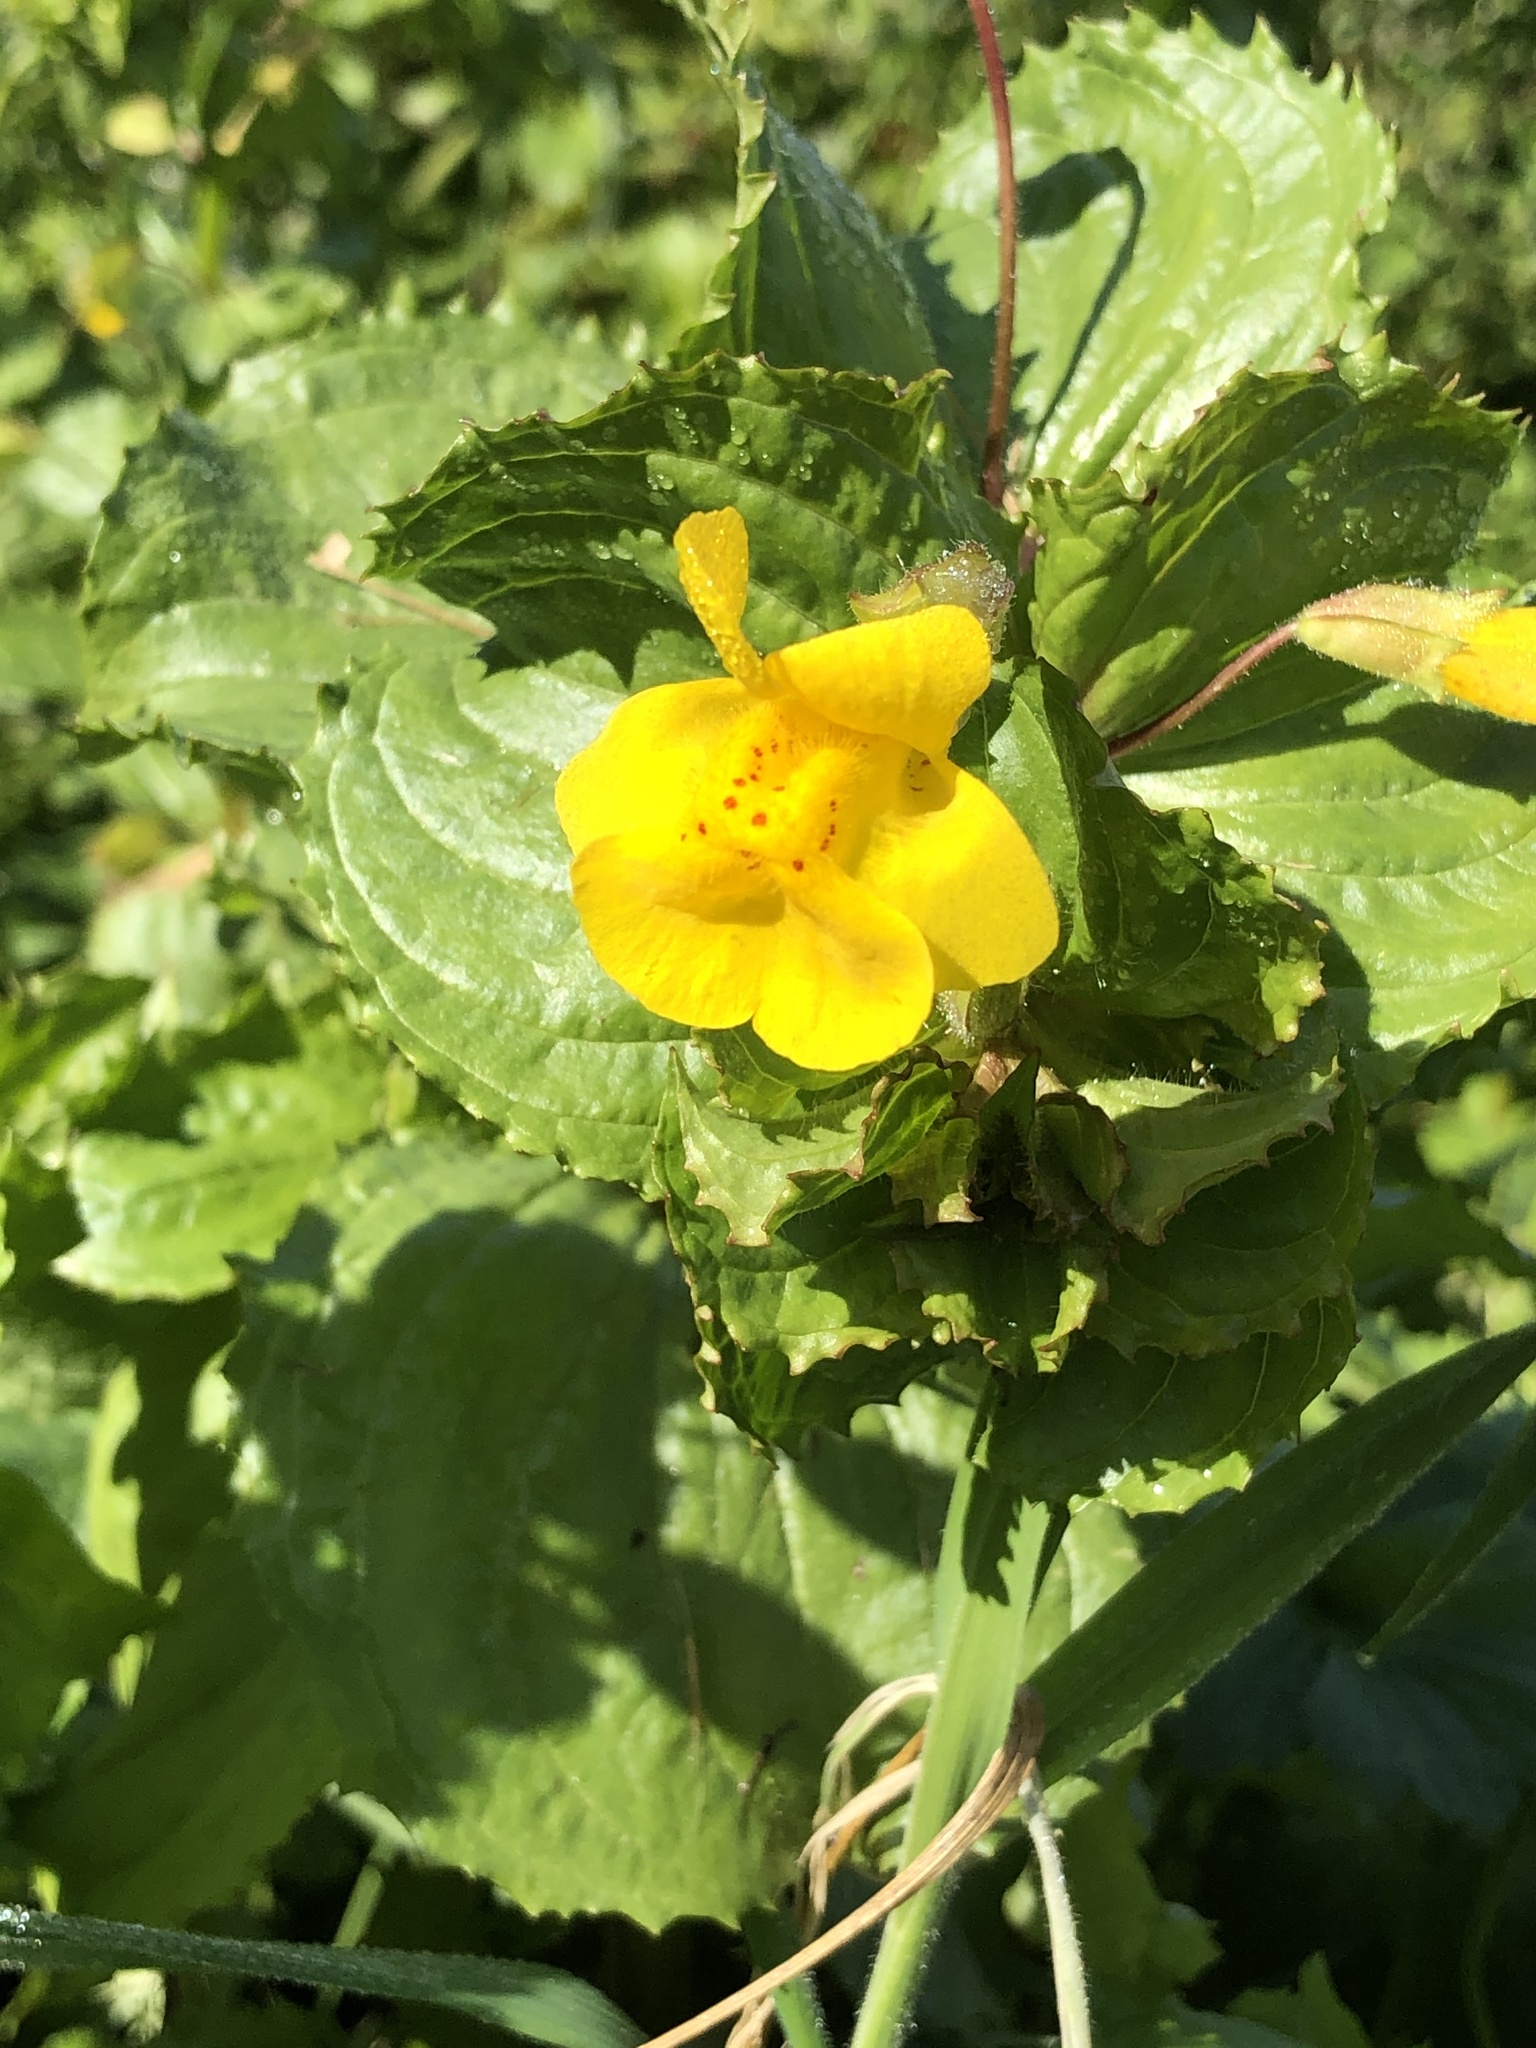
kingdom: Plantae
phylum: Tracheophyta
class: Magnoliopsida
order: Lamiales
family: Phrymaceae
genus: Erythranthe
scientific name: Erythranthe guttata
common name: Monkeyflower
